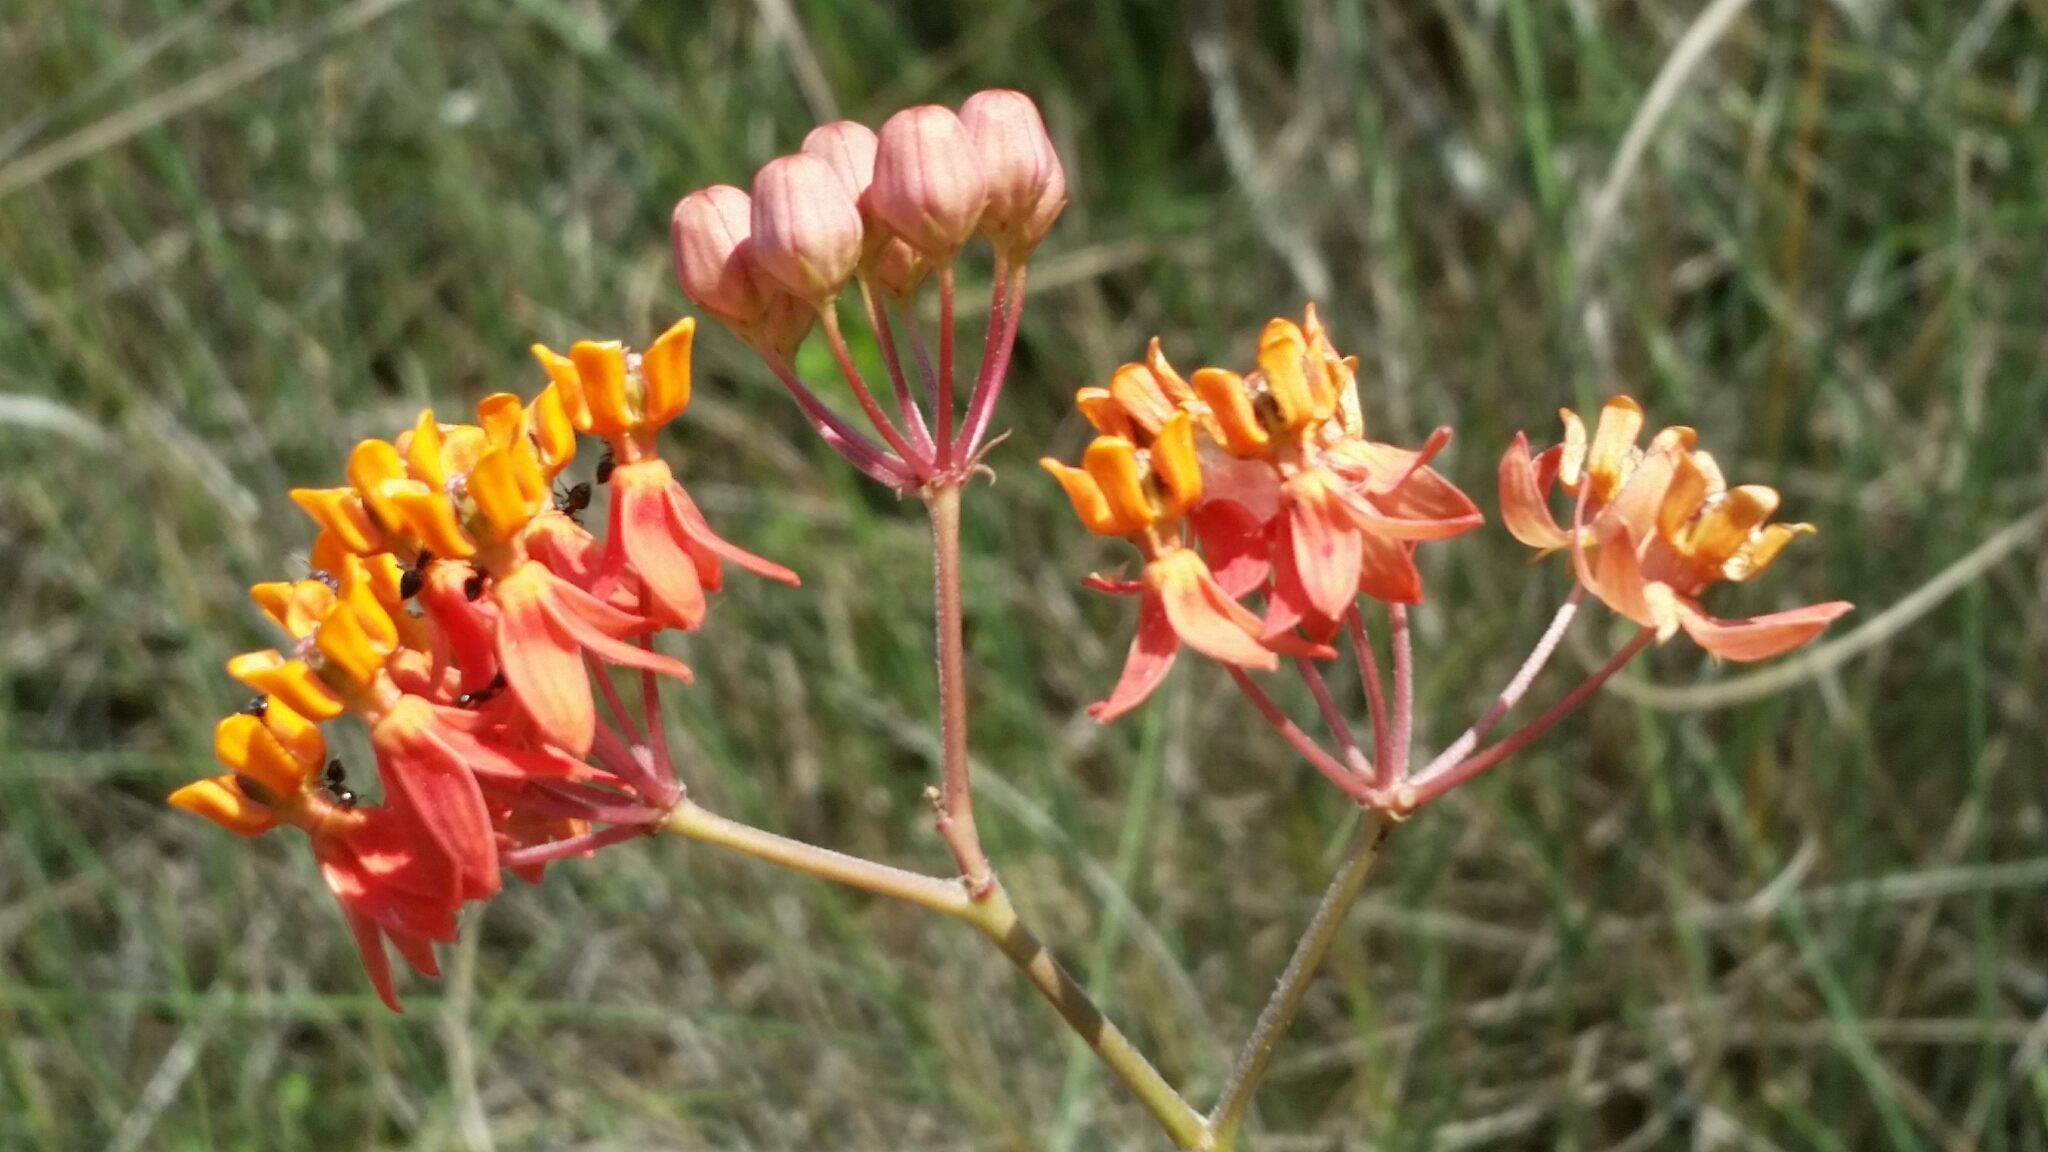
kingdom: Plantae
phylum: Tracheophyta
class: Magnoliopsida
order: Gentianales
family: Apocynaceae
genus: Asclepias
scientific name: Asclepias lanceolata
